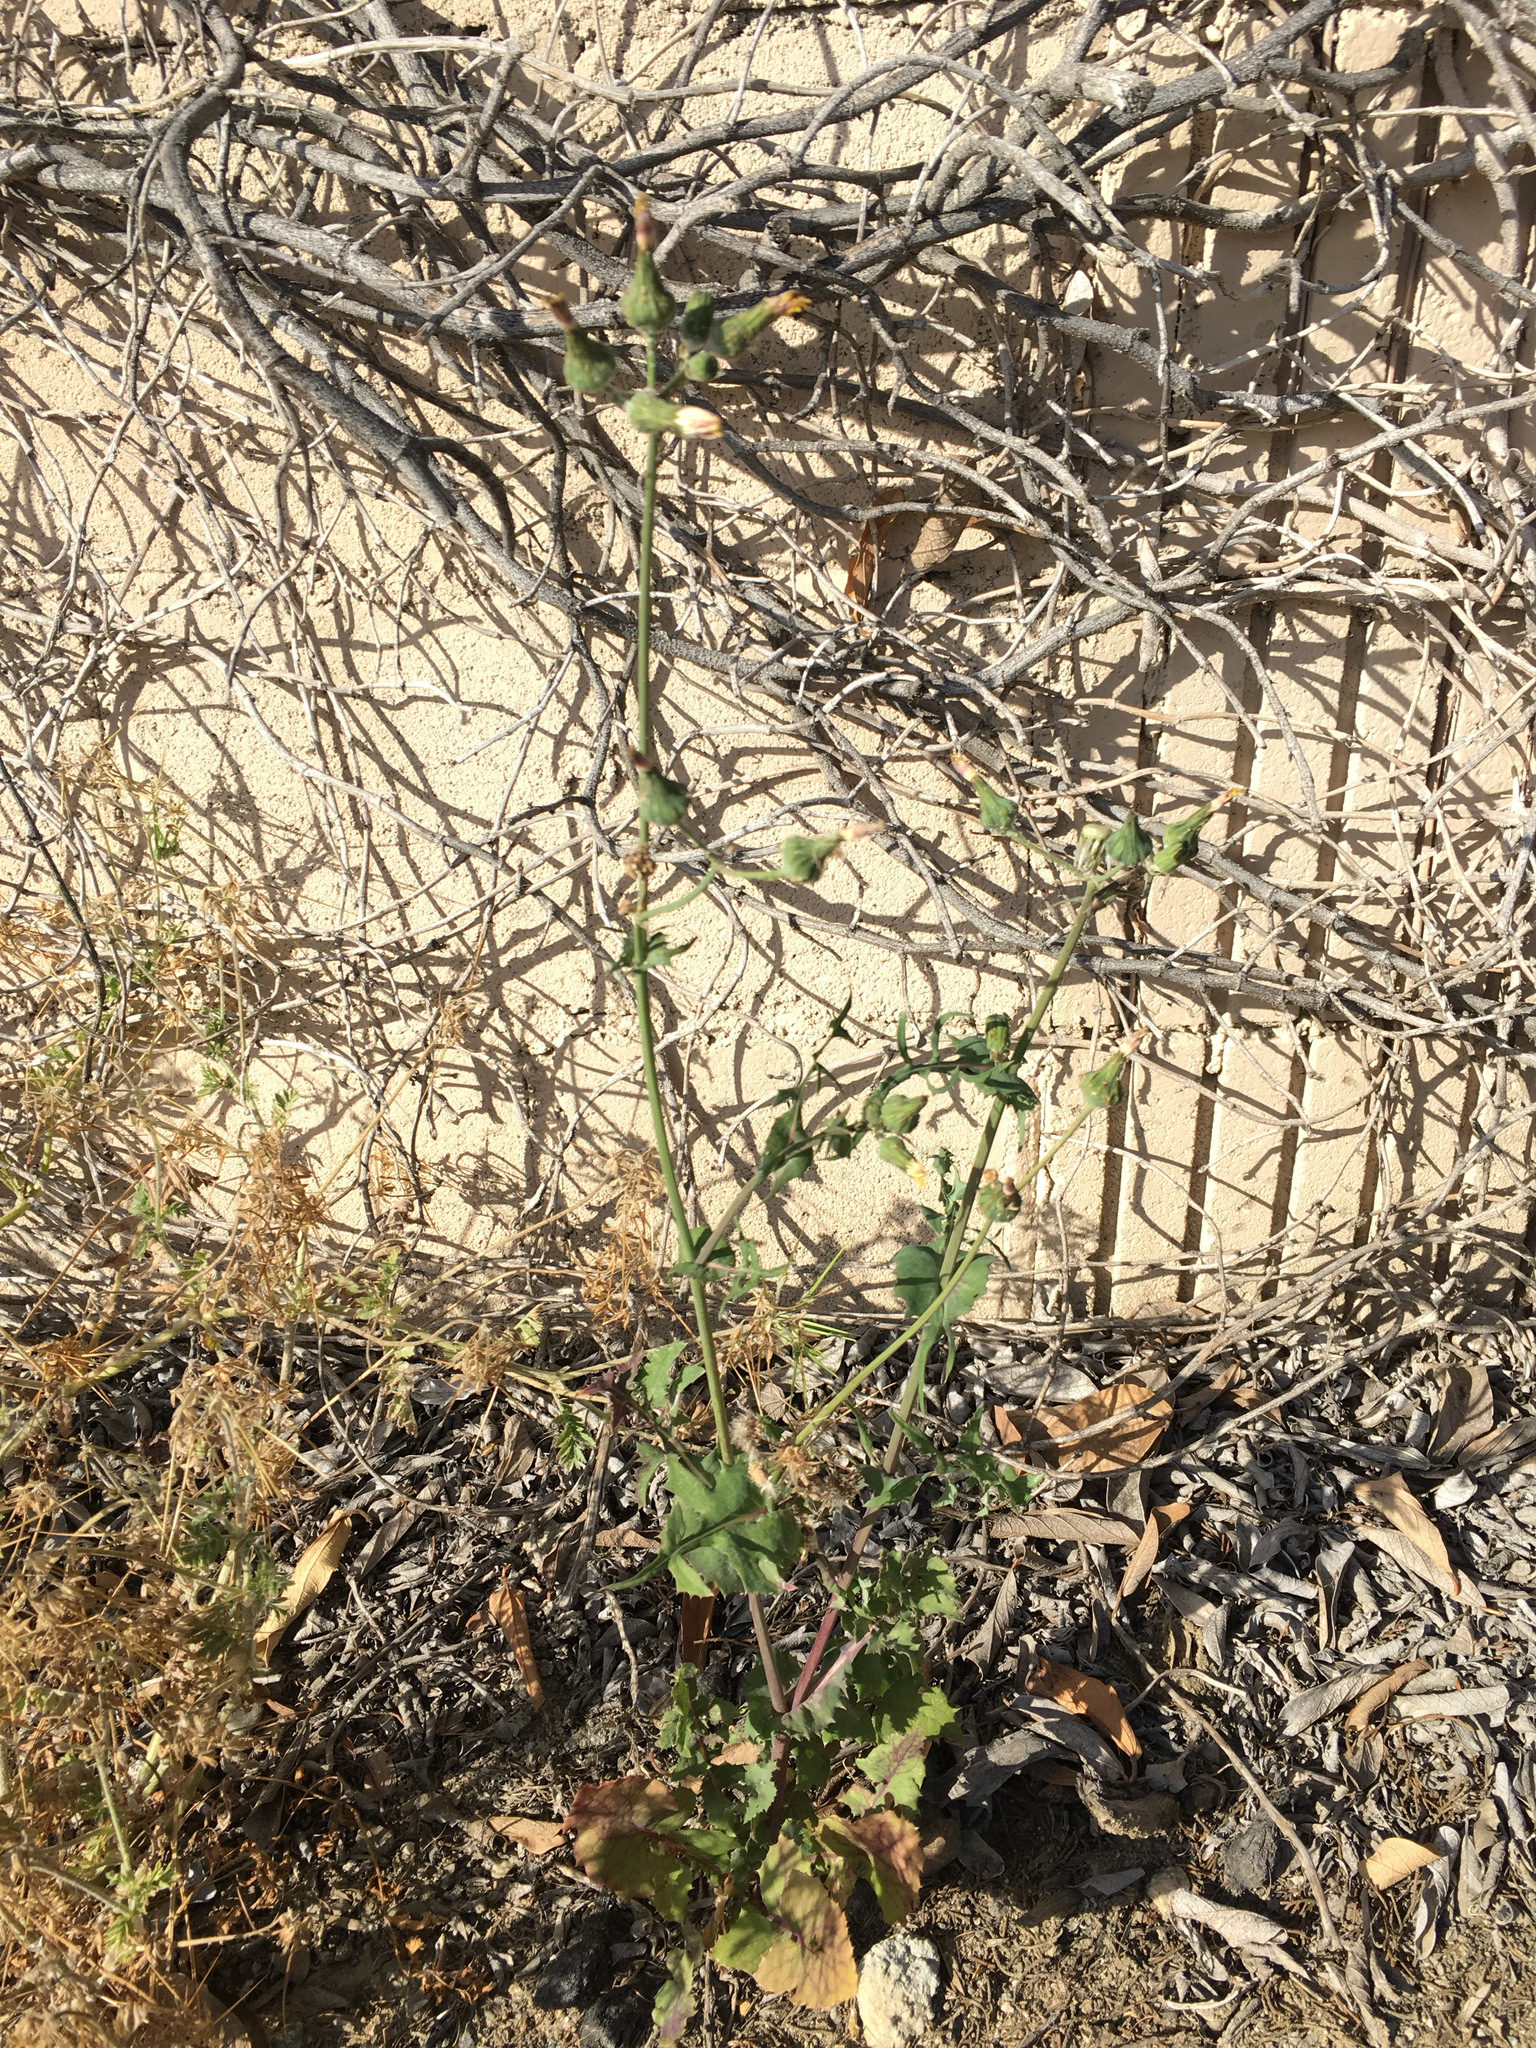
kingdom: Plantae
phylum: Tracheophyta
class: Magnoliopsida
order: Asterales
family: Asteraceae
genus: Sonchus
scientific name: Sonchus oleraceus
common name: Common sowthistle
